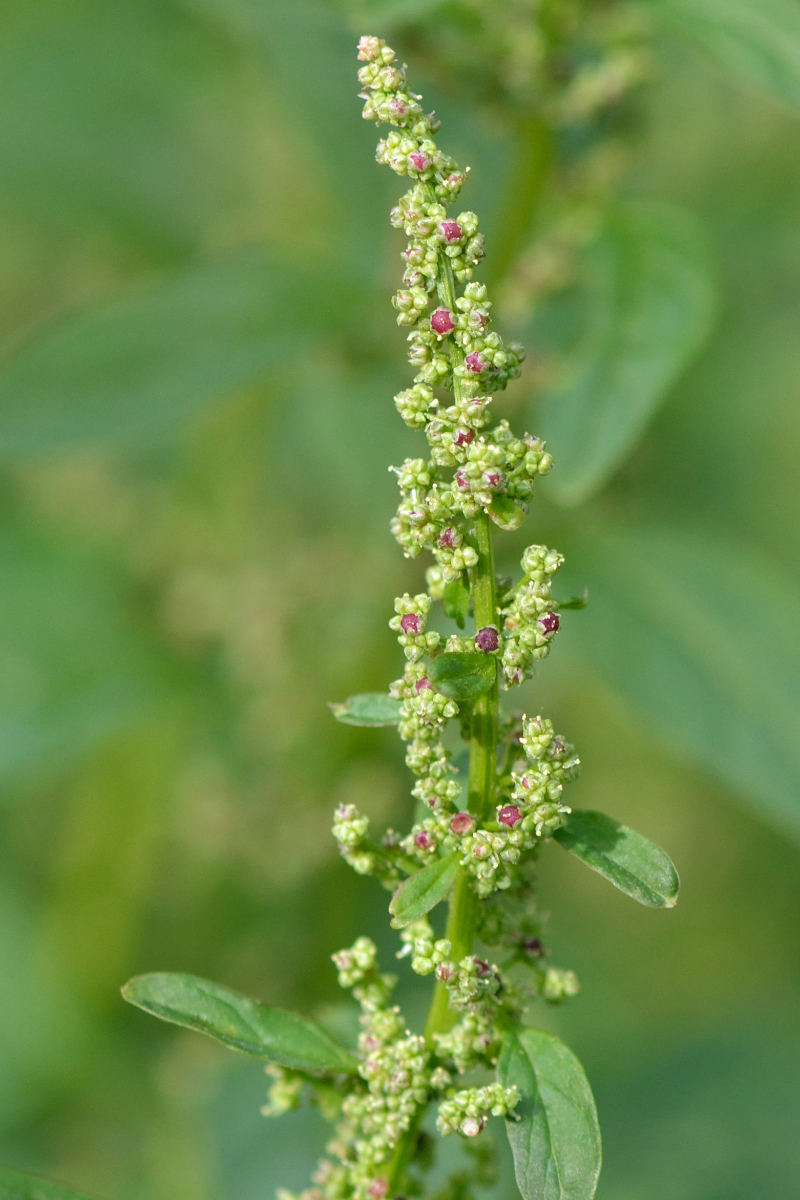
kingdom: Plantae
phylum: Tracheophyta
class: Magnoliopsida
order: Caryophyllales
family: Amaranthaceae
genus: Lipandra
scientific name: Lipandra polysperma
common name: Many-seed goosefoot
